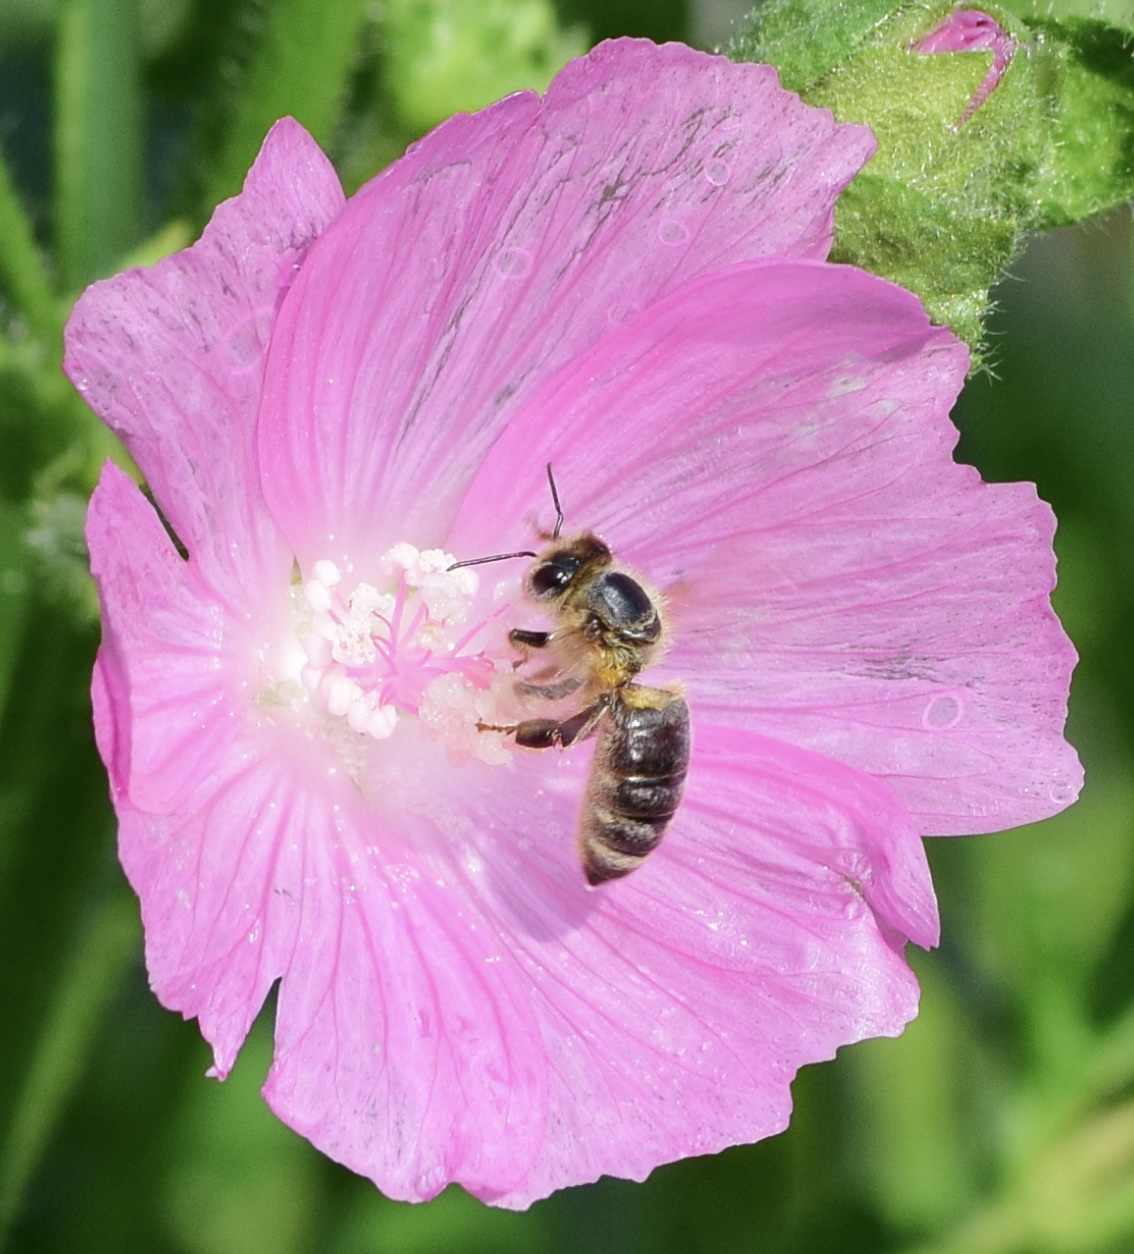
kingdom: Animalia
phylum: Arthropoda
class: Insecta
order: Hymenoptera
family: Apidae
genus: Apis
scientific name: Apis mellifera
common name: Honey bee
